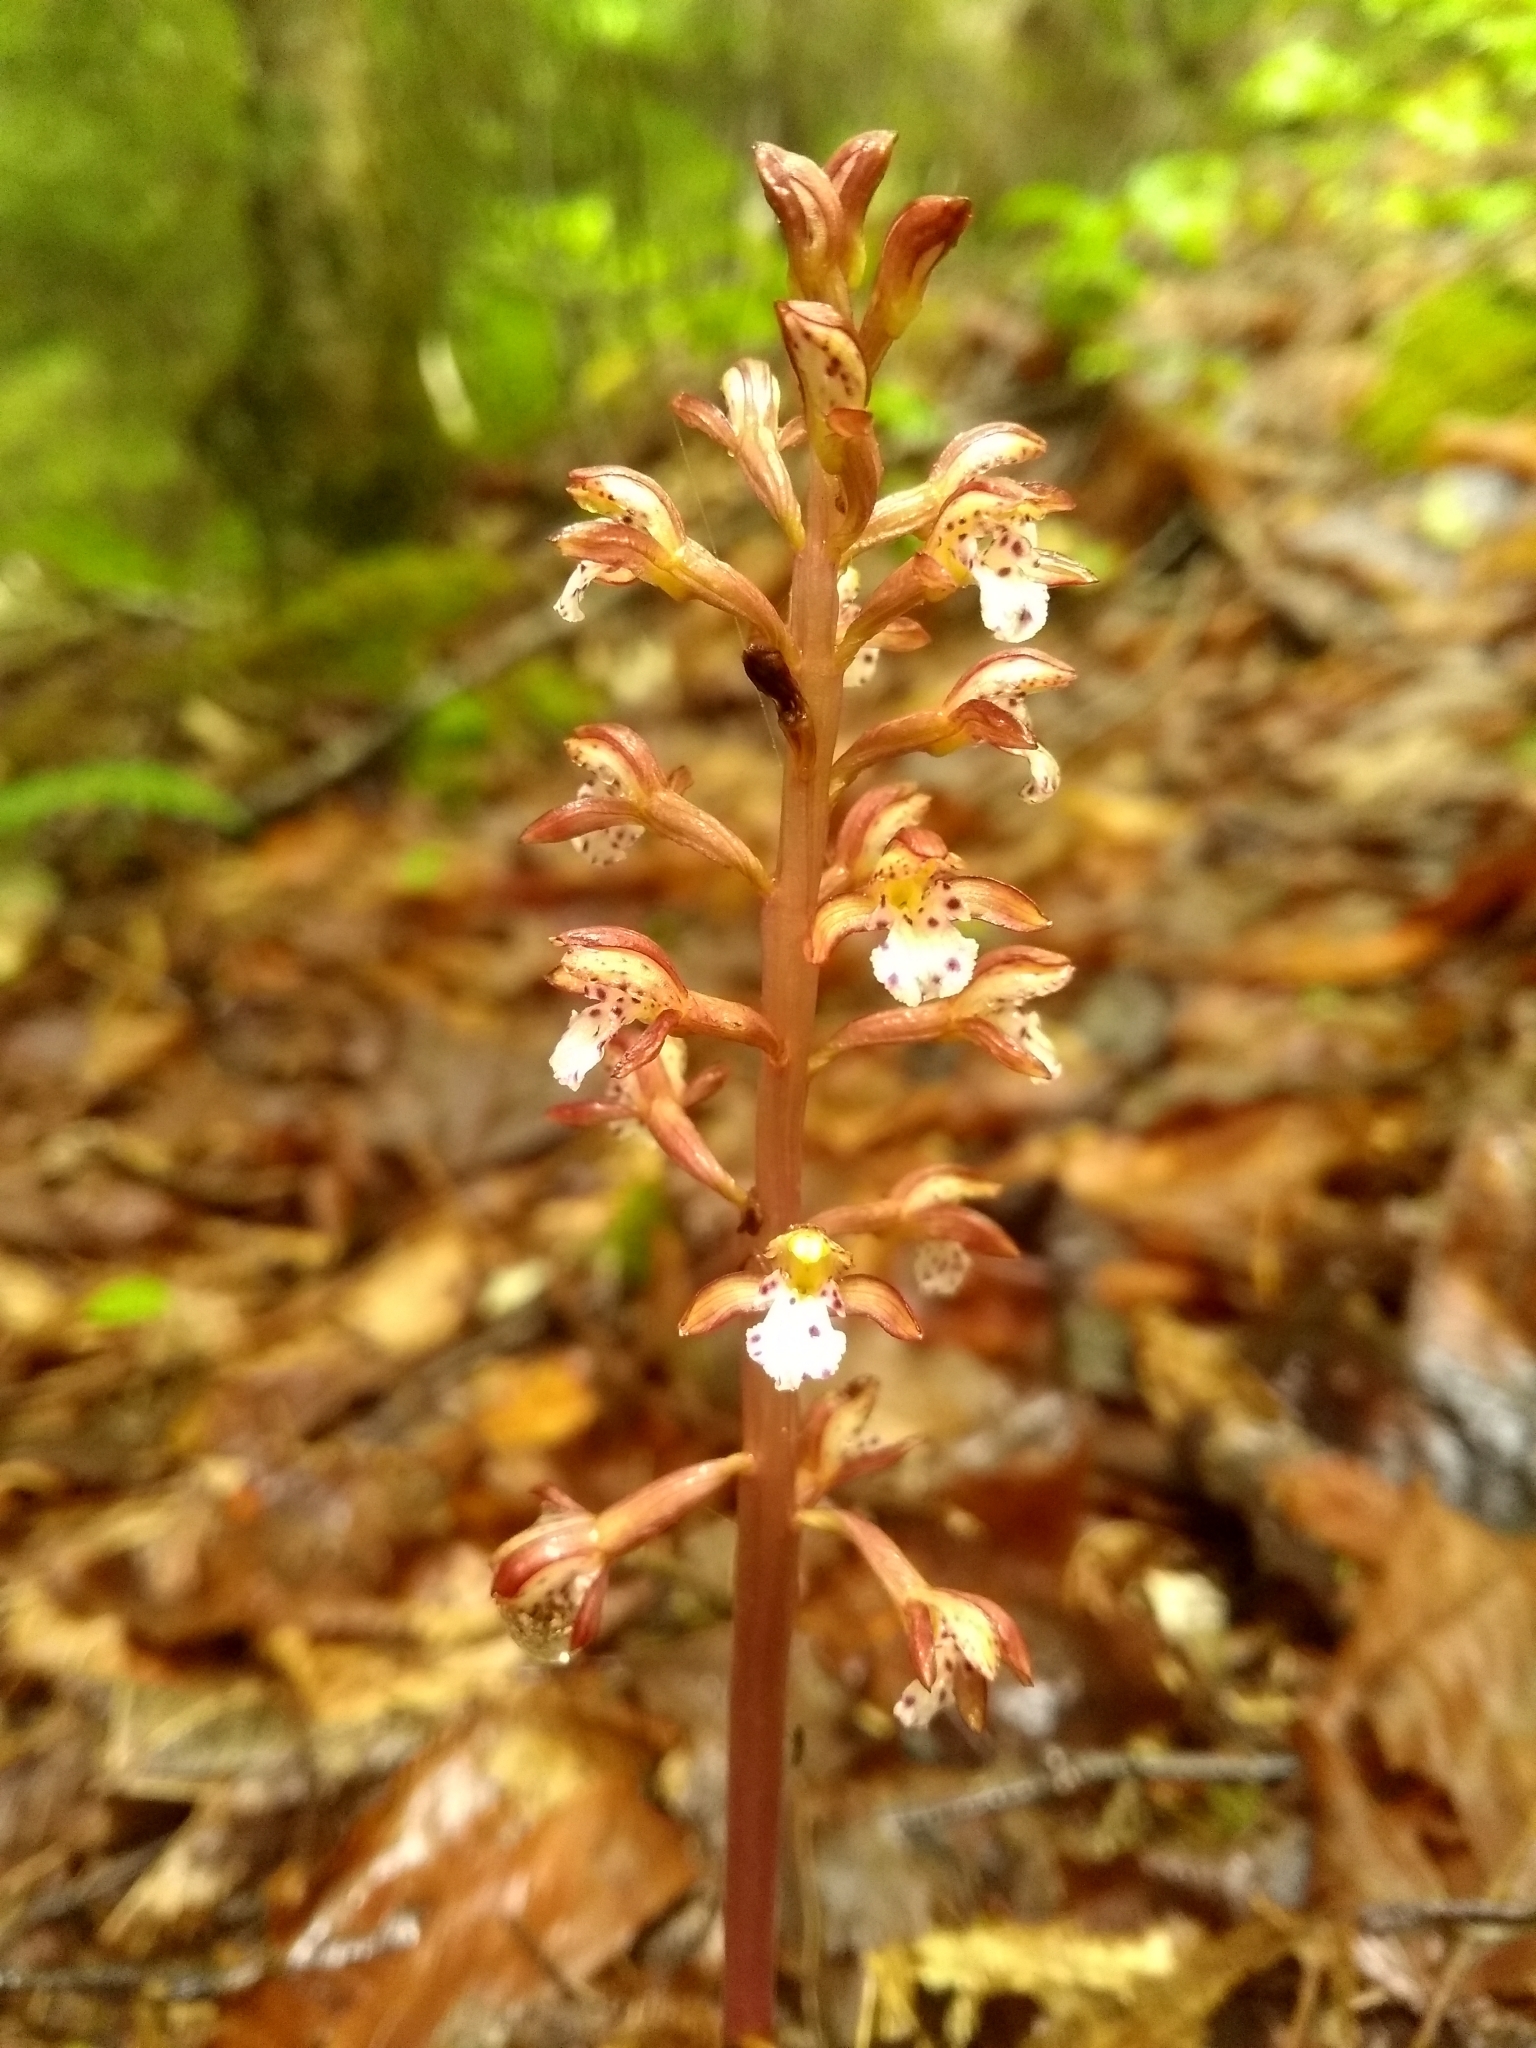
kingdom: Plantae
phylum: Tracheophyta
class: Liliopsida
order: Asparagales
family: Orchidaceae
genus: Corallorhiza
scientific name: Corallorhiza maculata
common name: Spotted coralroot
